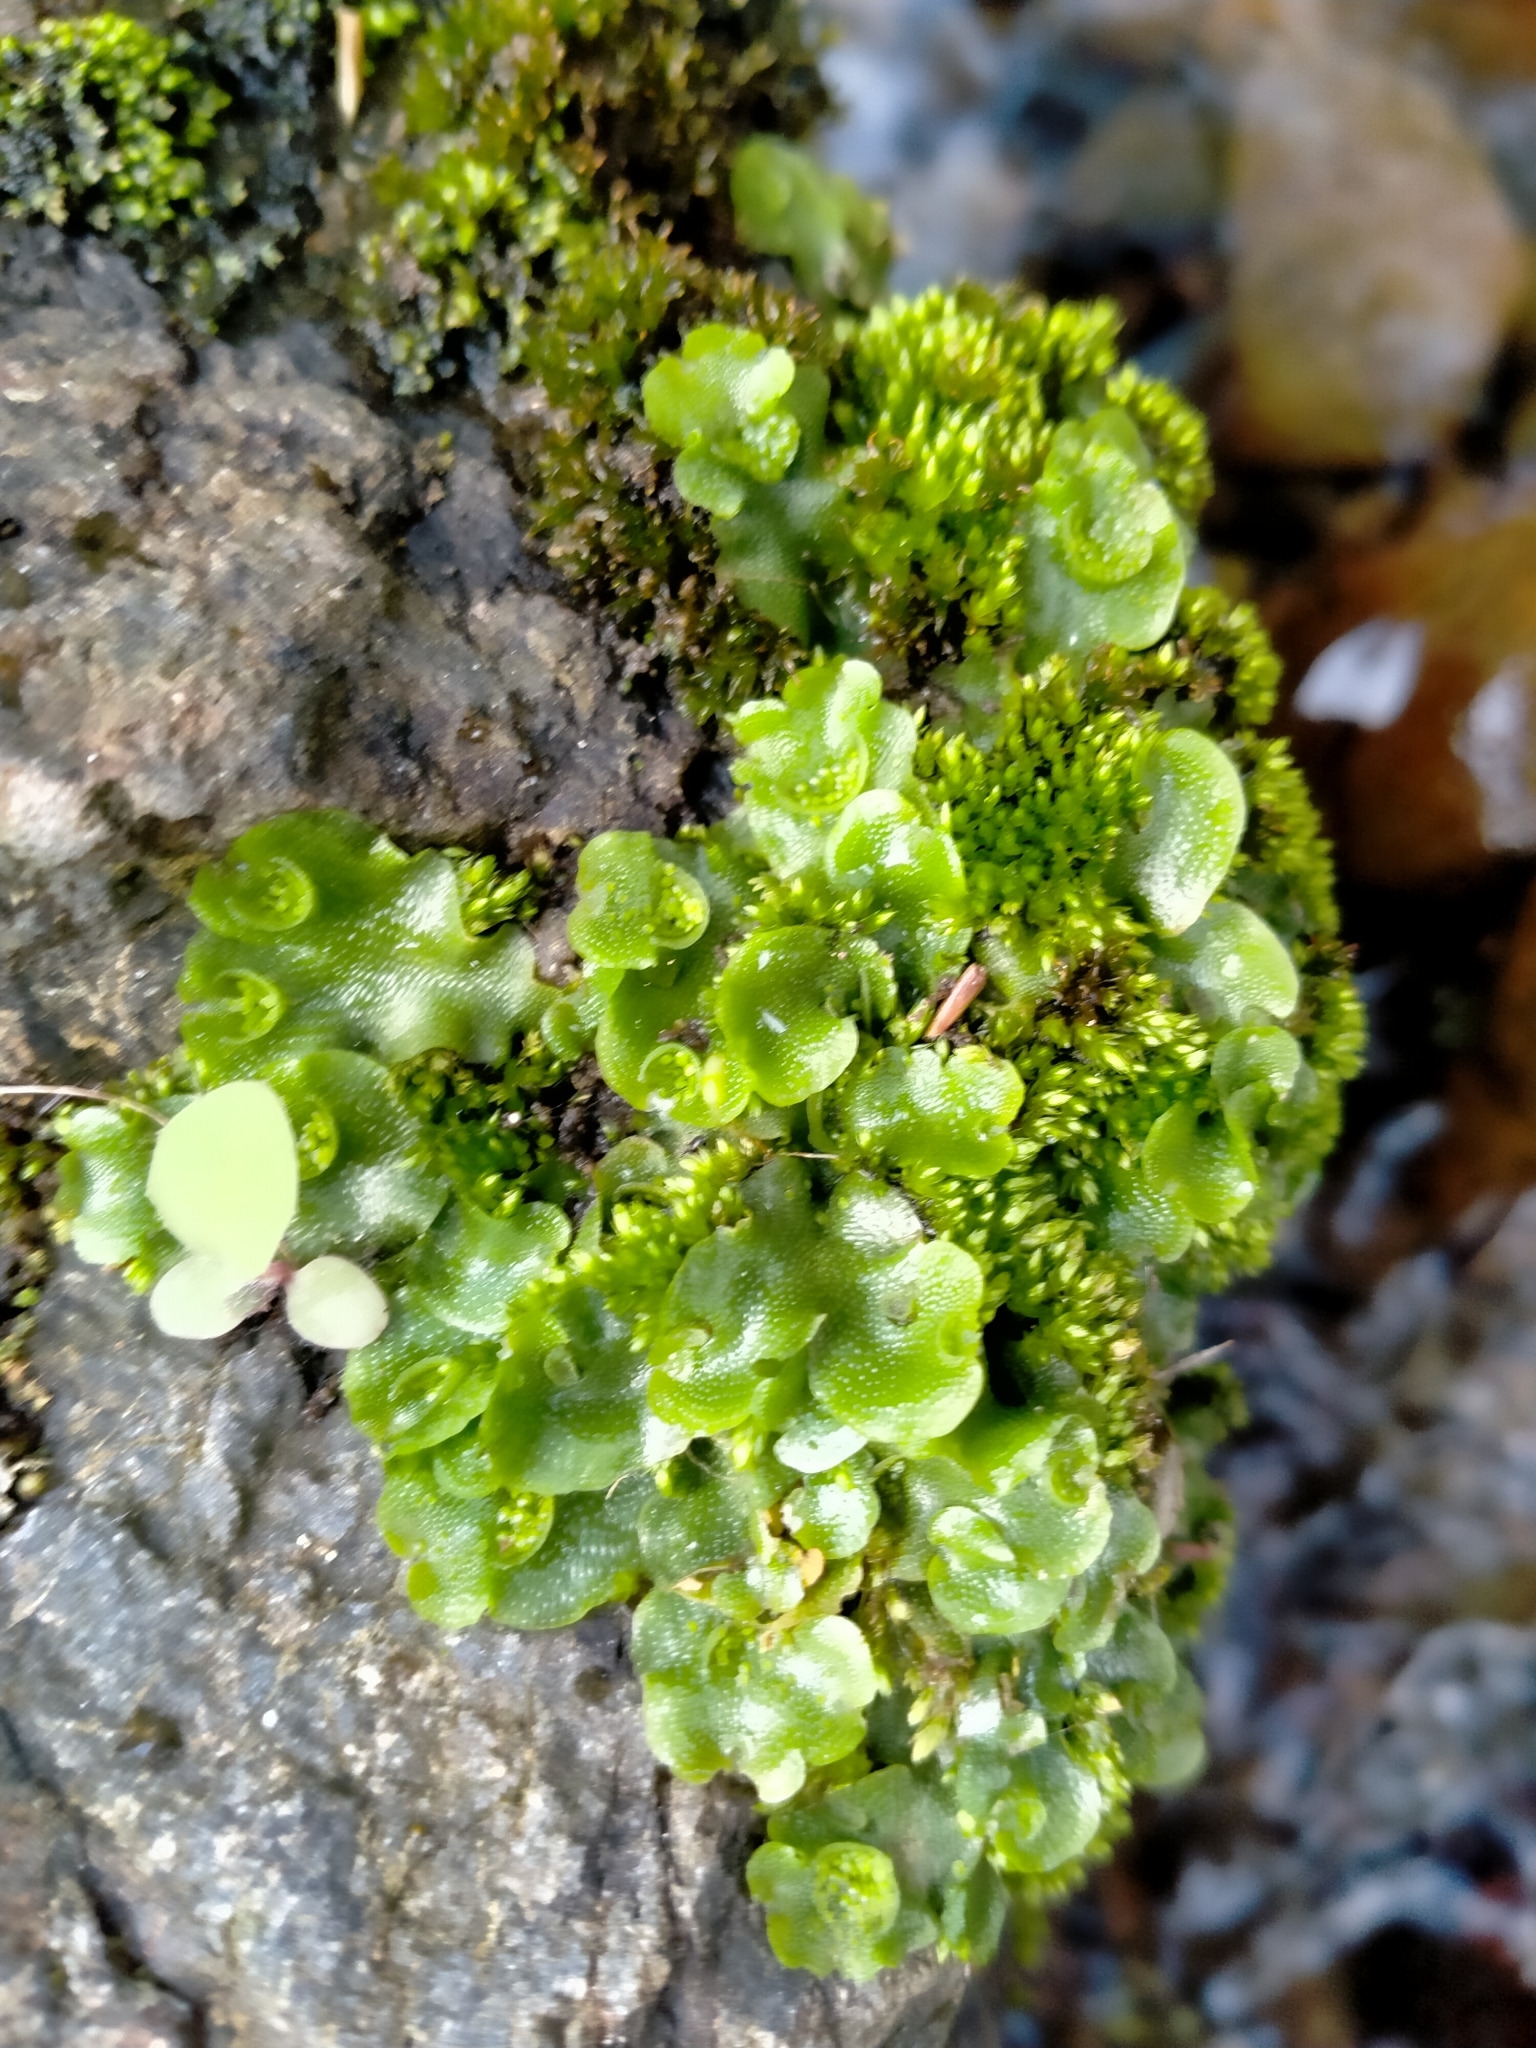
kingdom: Plantae
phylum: Marchantiophyta
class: Marchantiopsida
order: Lunulariales
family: Lunulariaceae
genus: Lunularia
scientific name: Lunularia cruciata
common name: Crescent-cup liverwort
